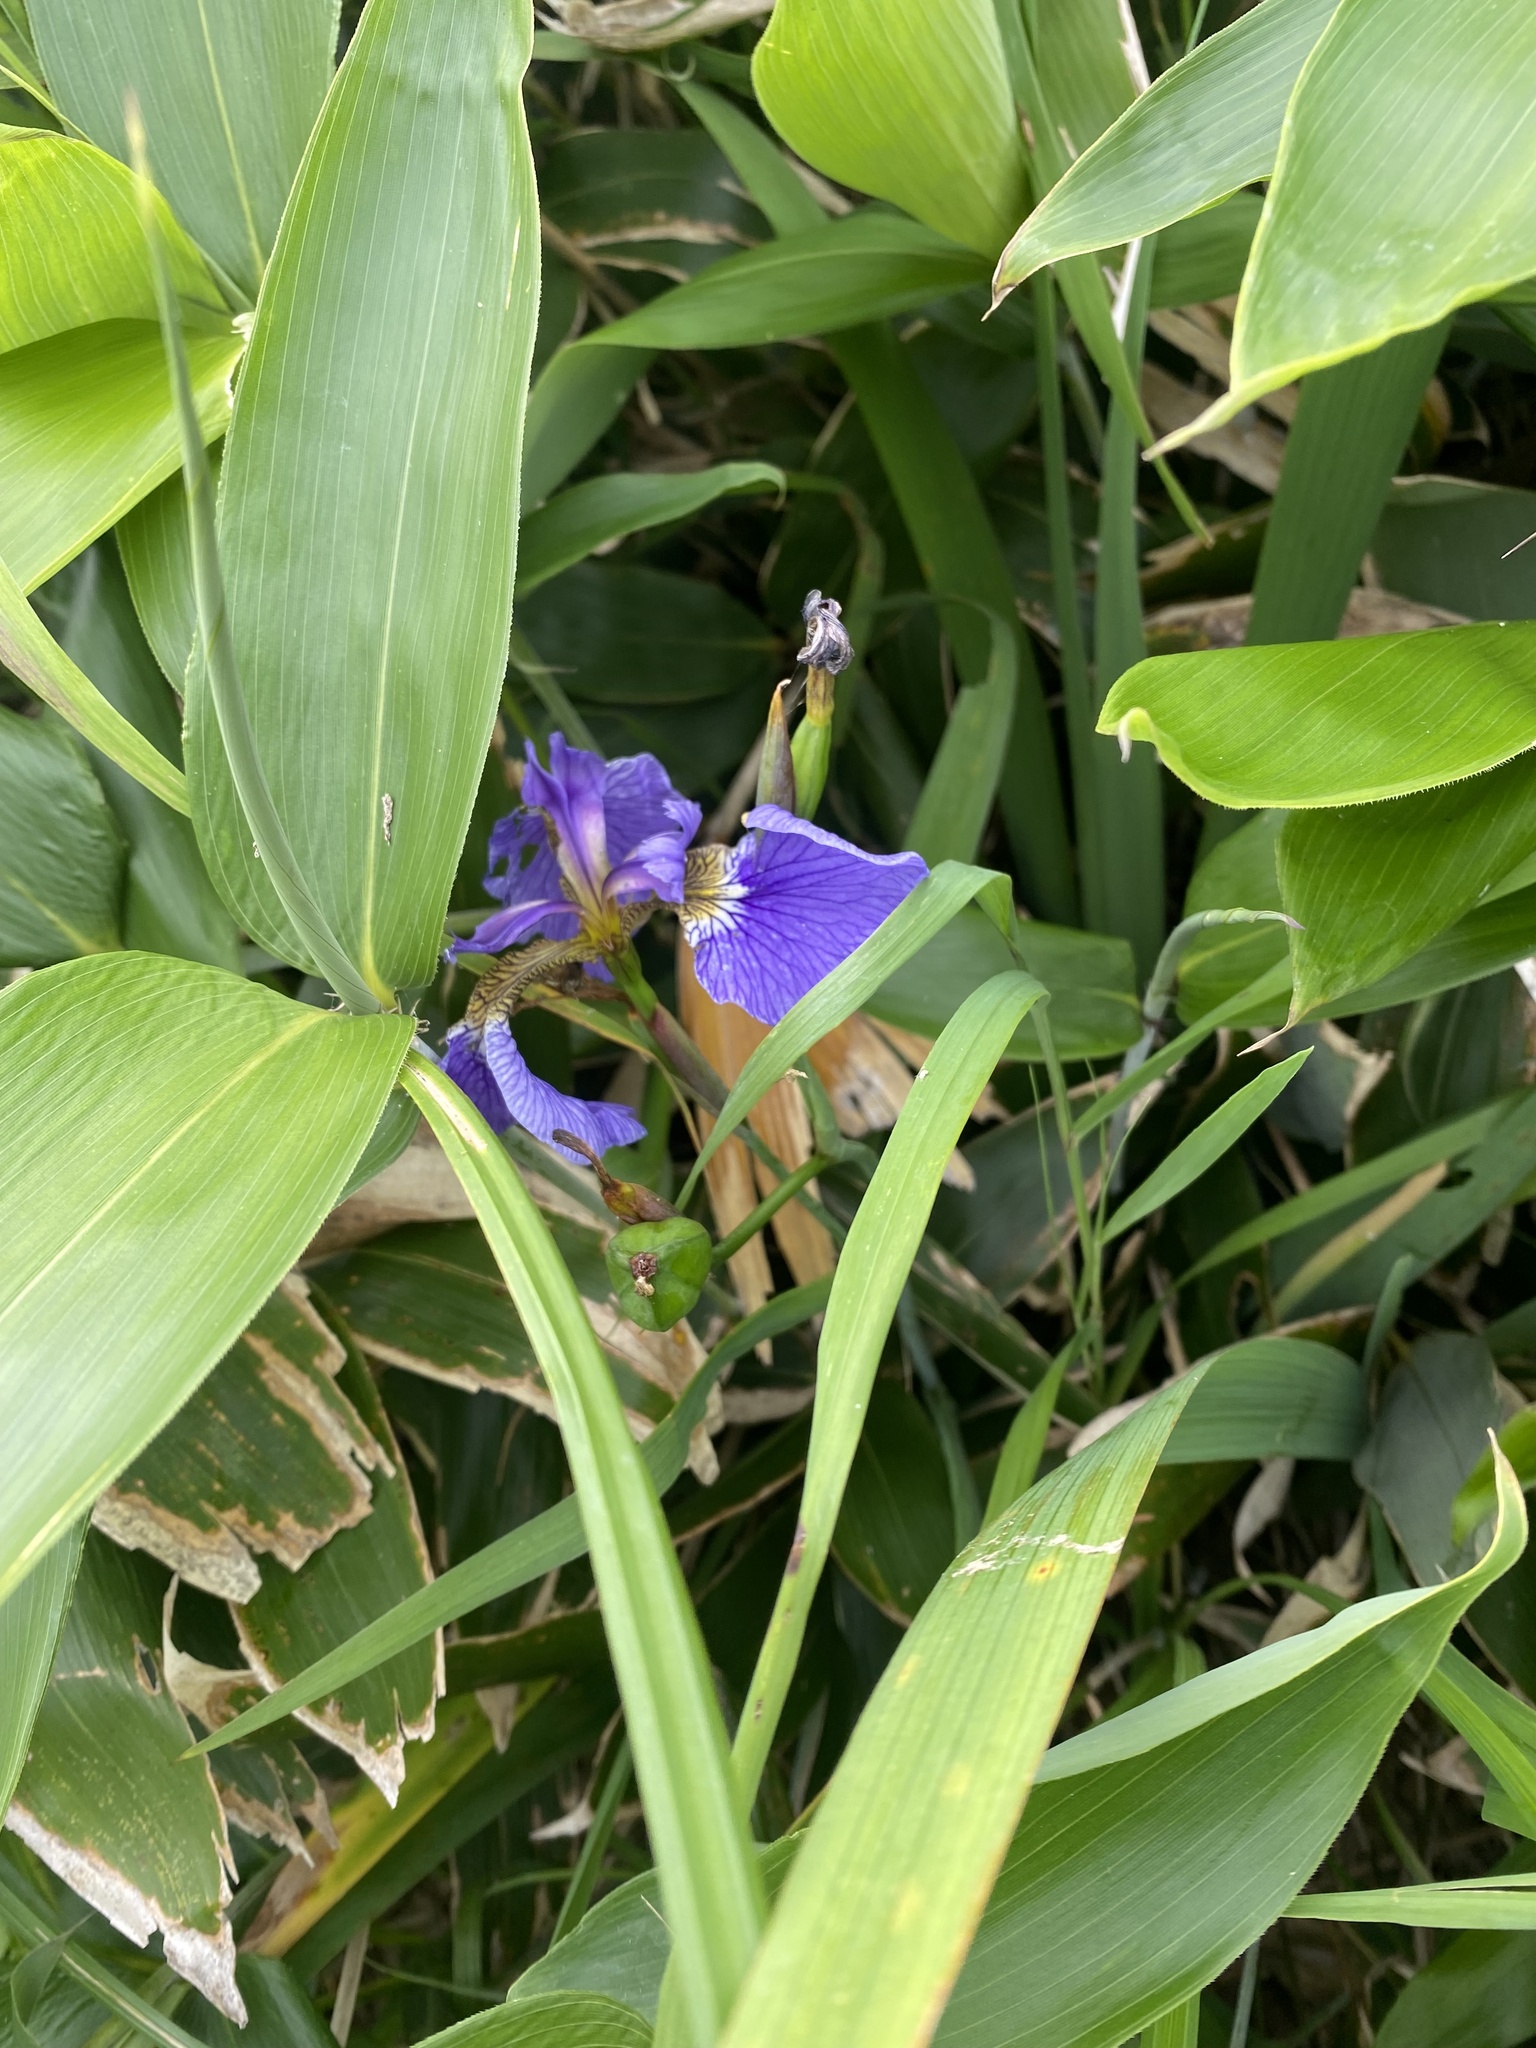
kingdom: Plantae
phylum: Tracheophyta
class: Liliopsida
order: Asparagales
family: Iridaceae
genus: Iris
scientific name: Iris setosa
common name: Arctic blue flag
